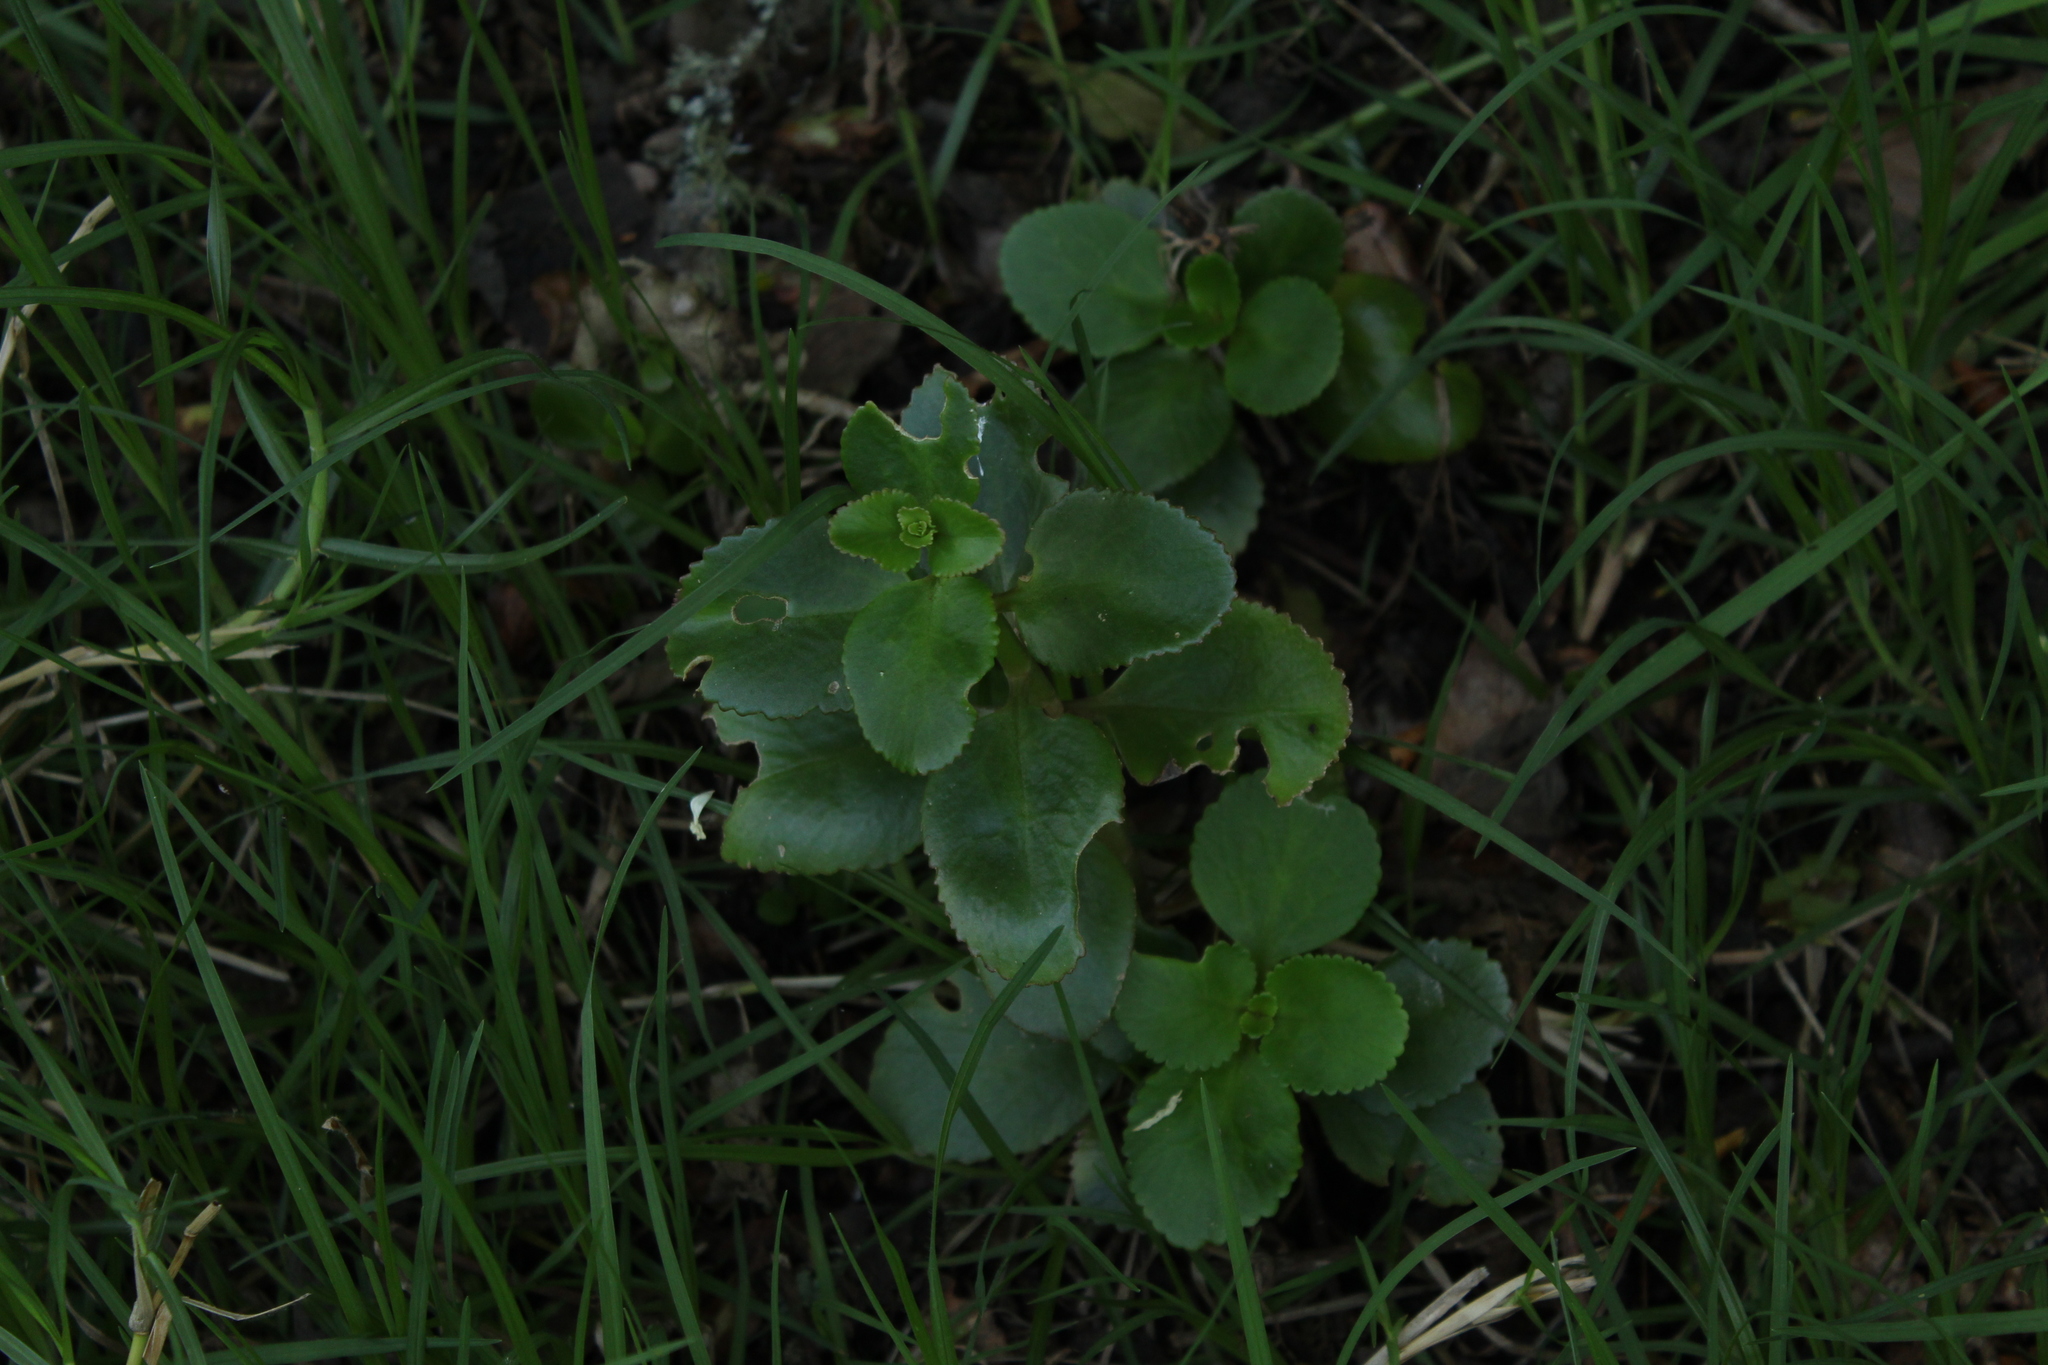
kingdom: Plantae
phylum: Tracheophyta
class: Magnoliopsida
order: Saxifragales
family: Crassulaceae
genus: Kalanchoe
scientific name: Kalanchoe densiflora
